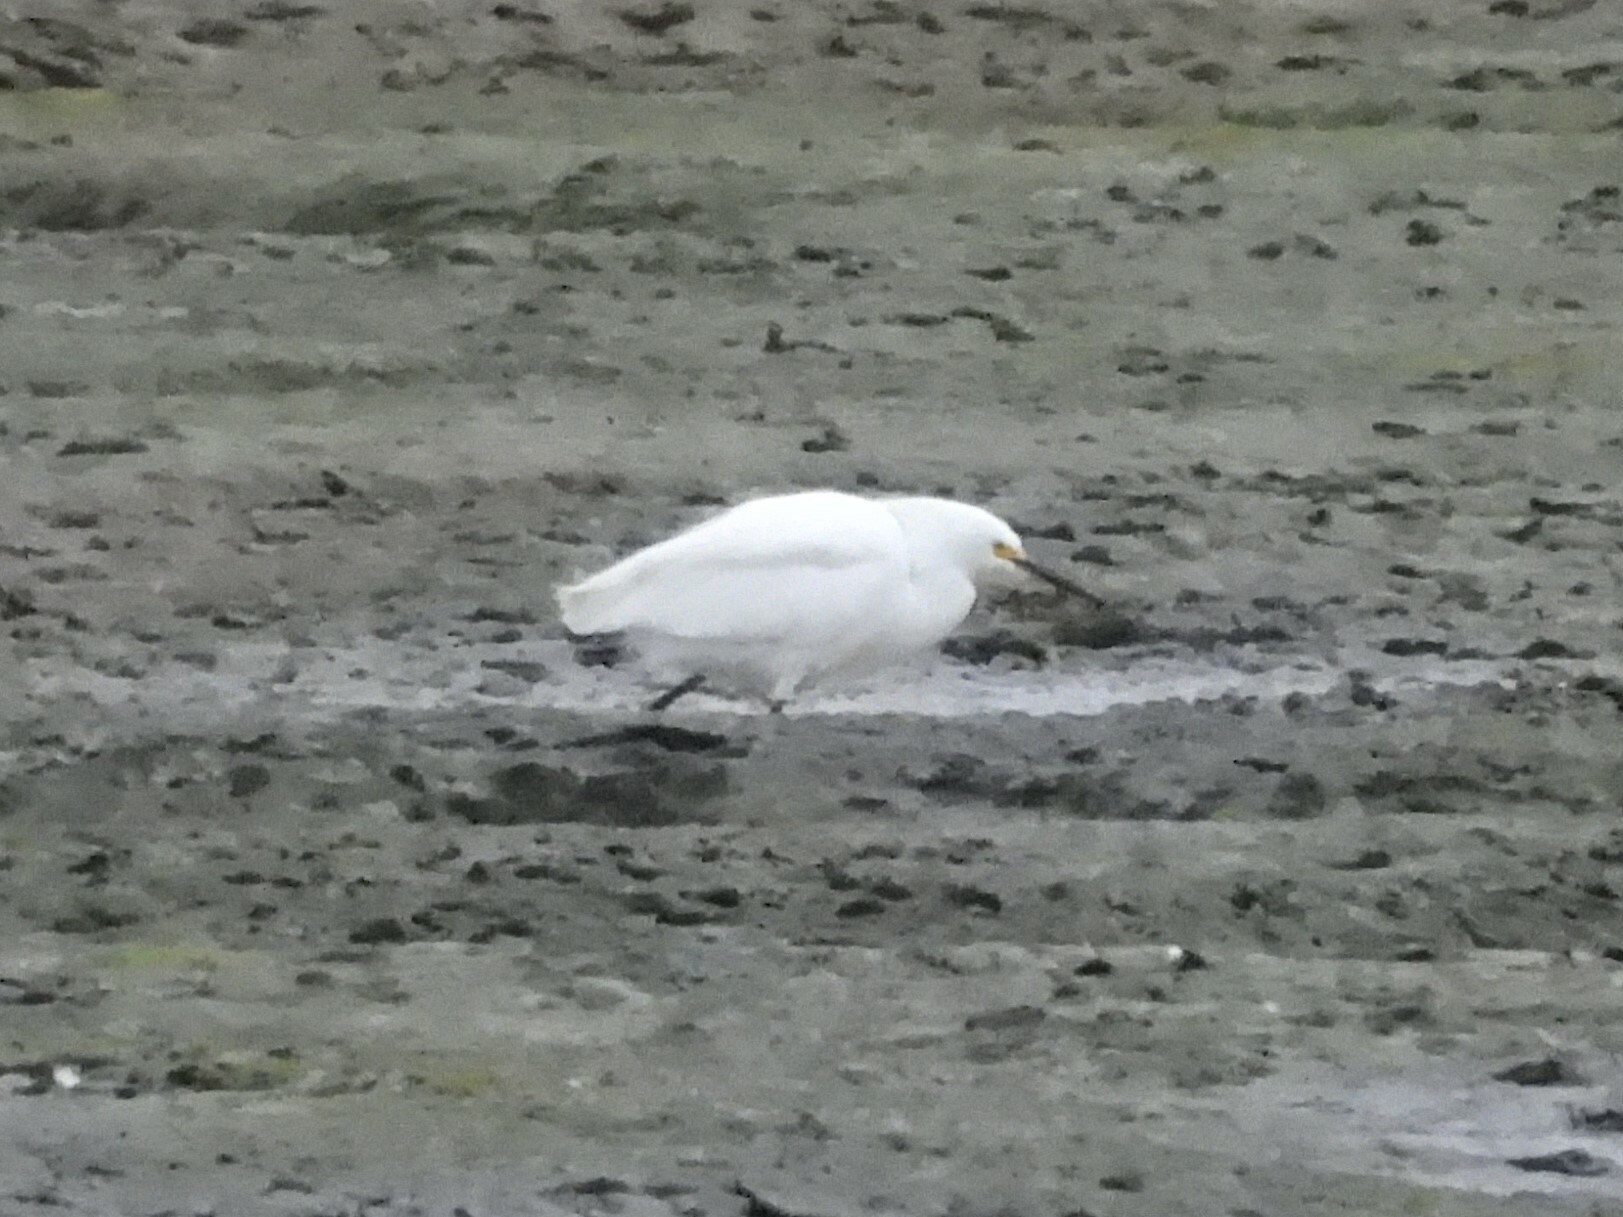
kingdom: Animalia
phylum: Chordata
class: Aves
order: Pelecaniformes
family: Ardeidae
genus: Egretta
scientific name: Egretta thula
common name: Snowy egret
